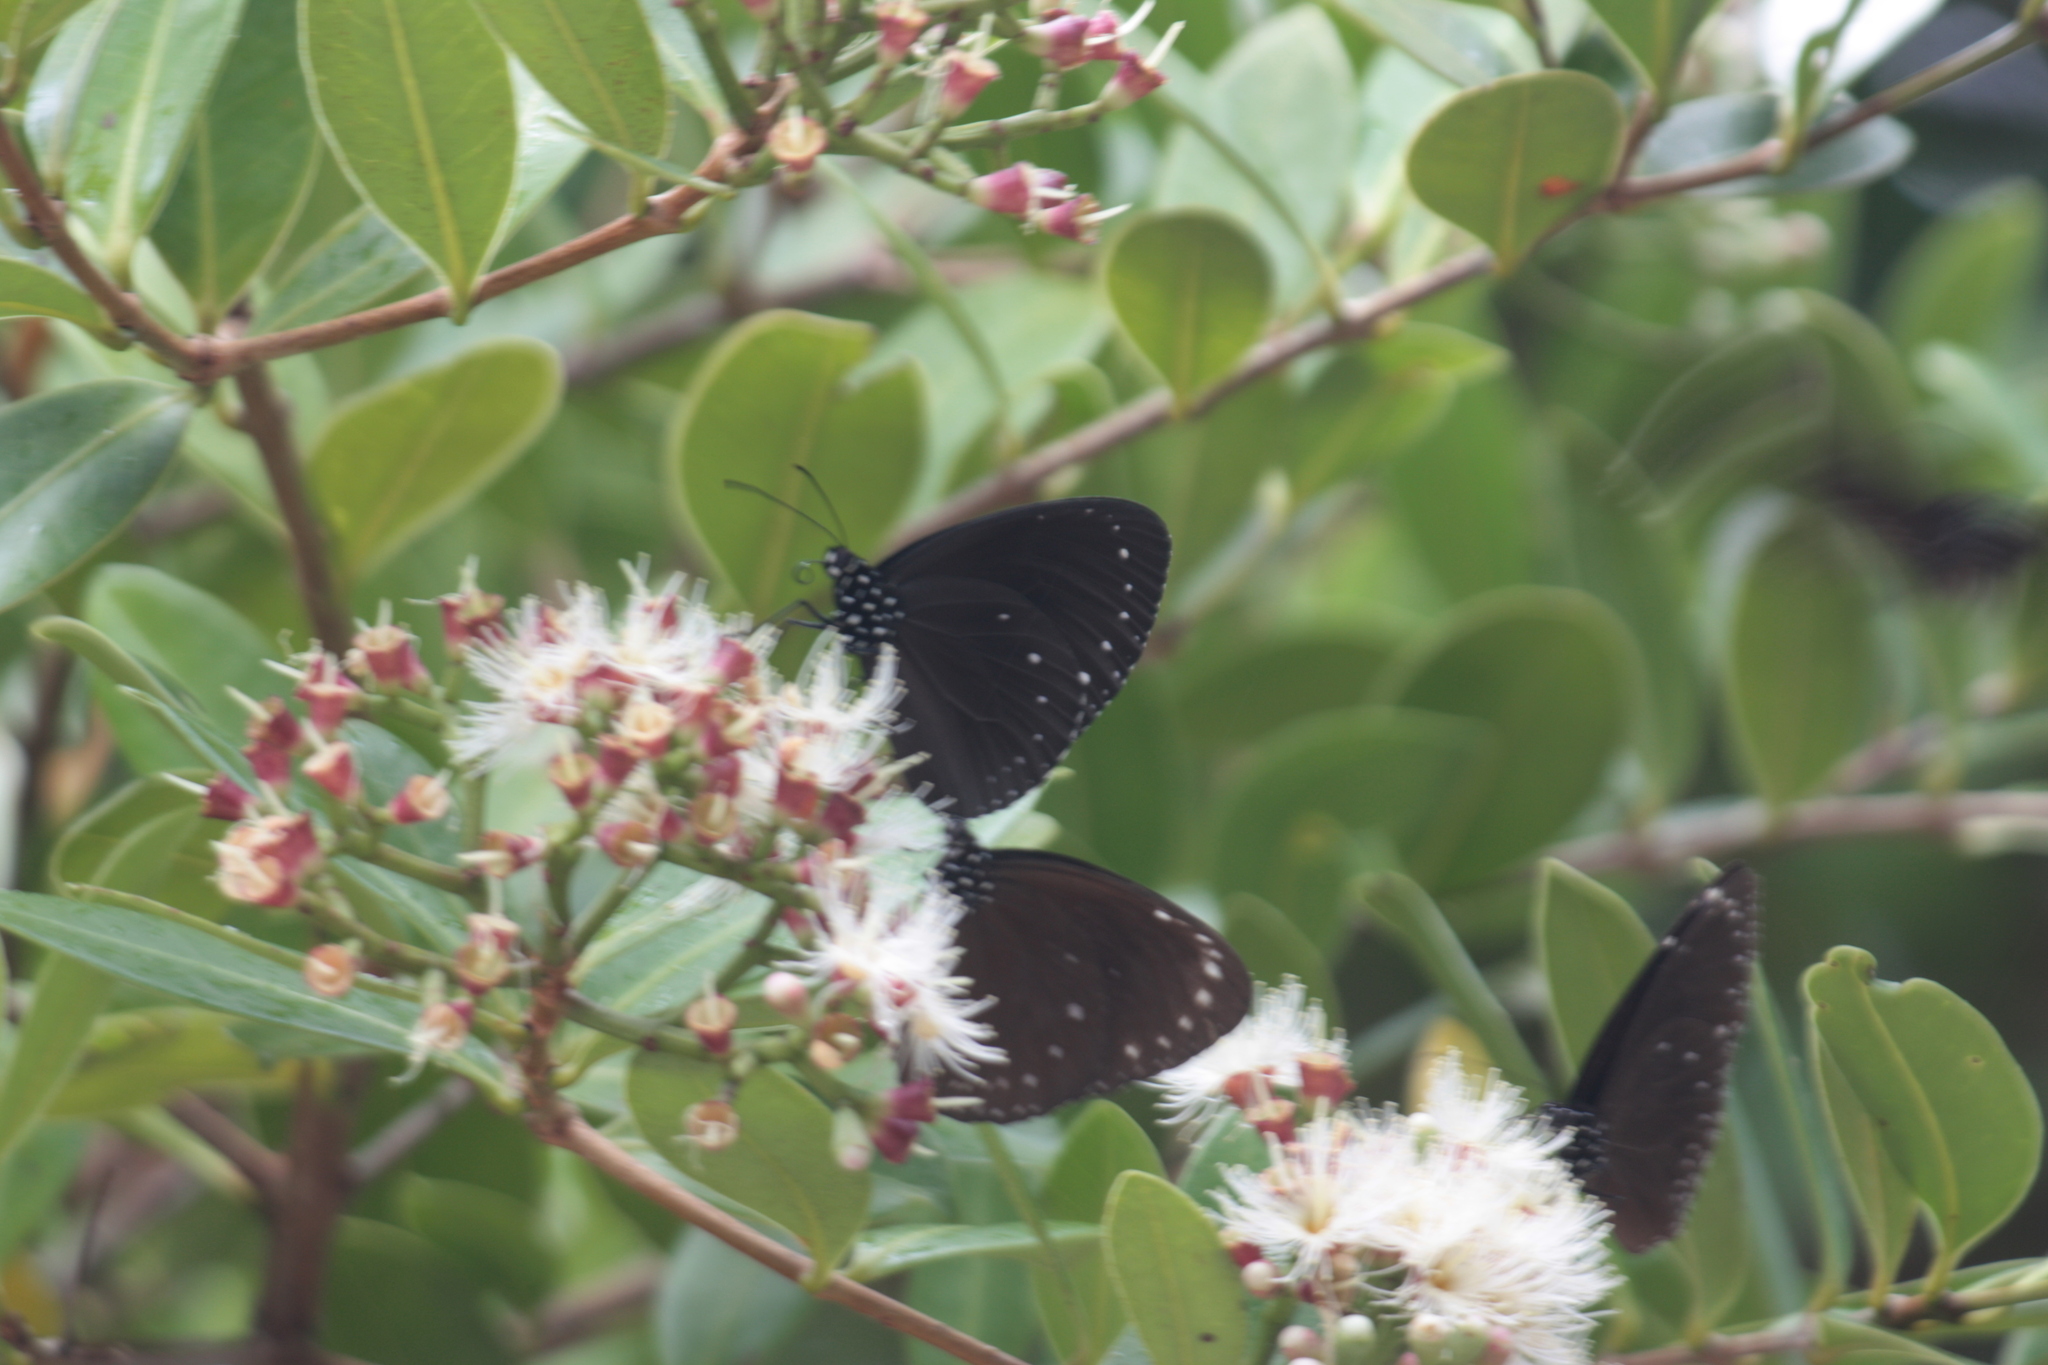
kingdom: Animalia
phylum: Arthropoda
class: Insecta
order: Lepidoptera
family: Nymphalidae
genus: Euploea
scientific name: Euploea tulliolus
